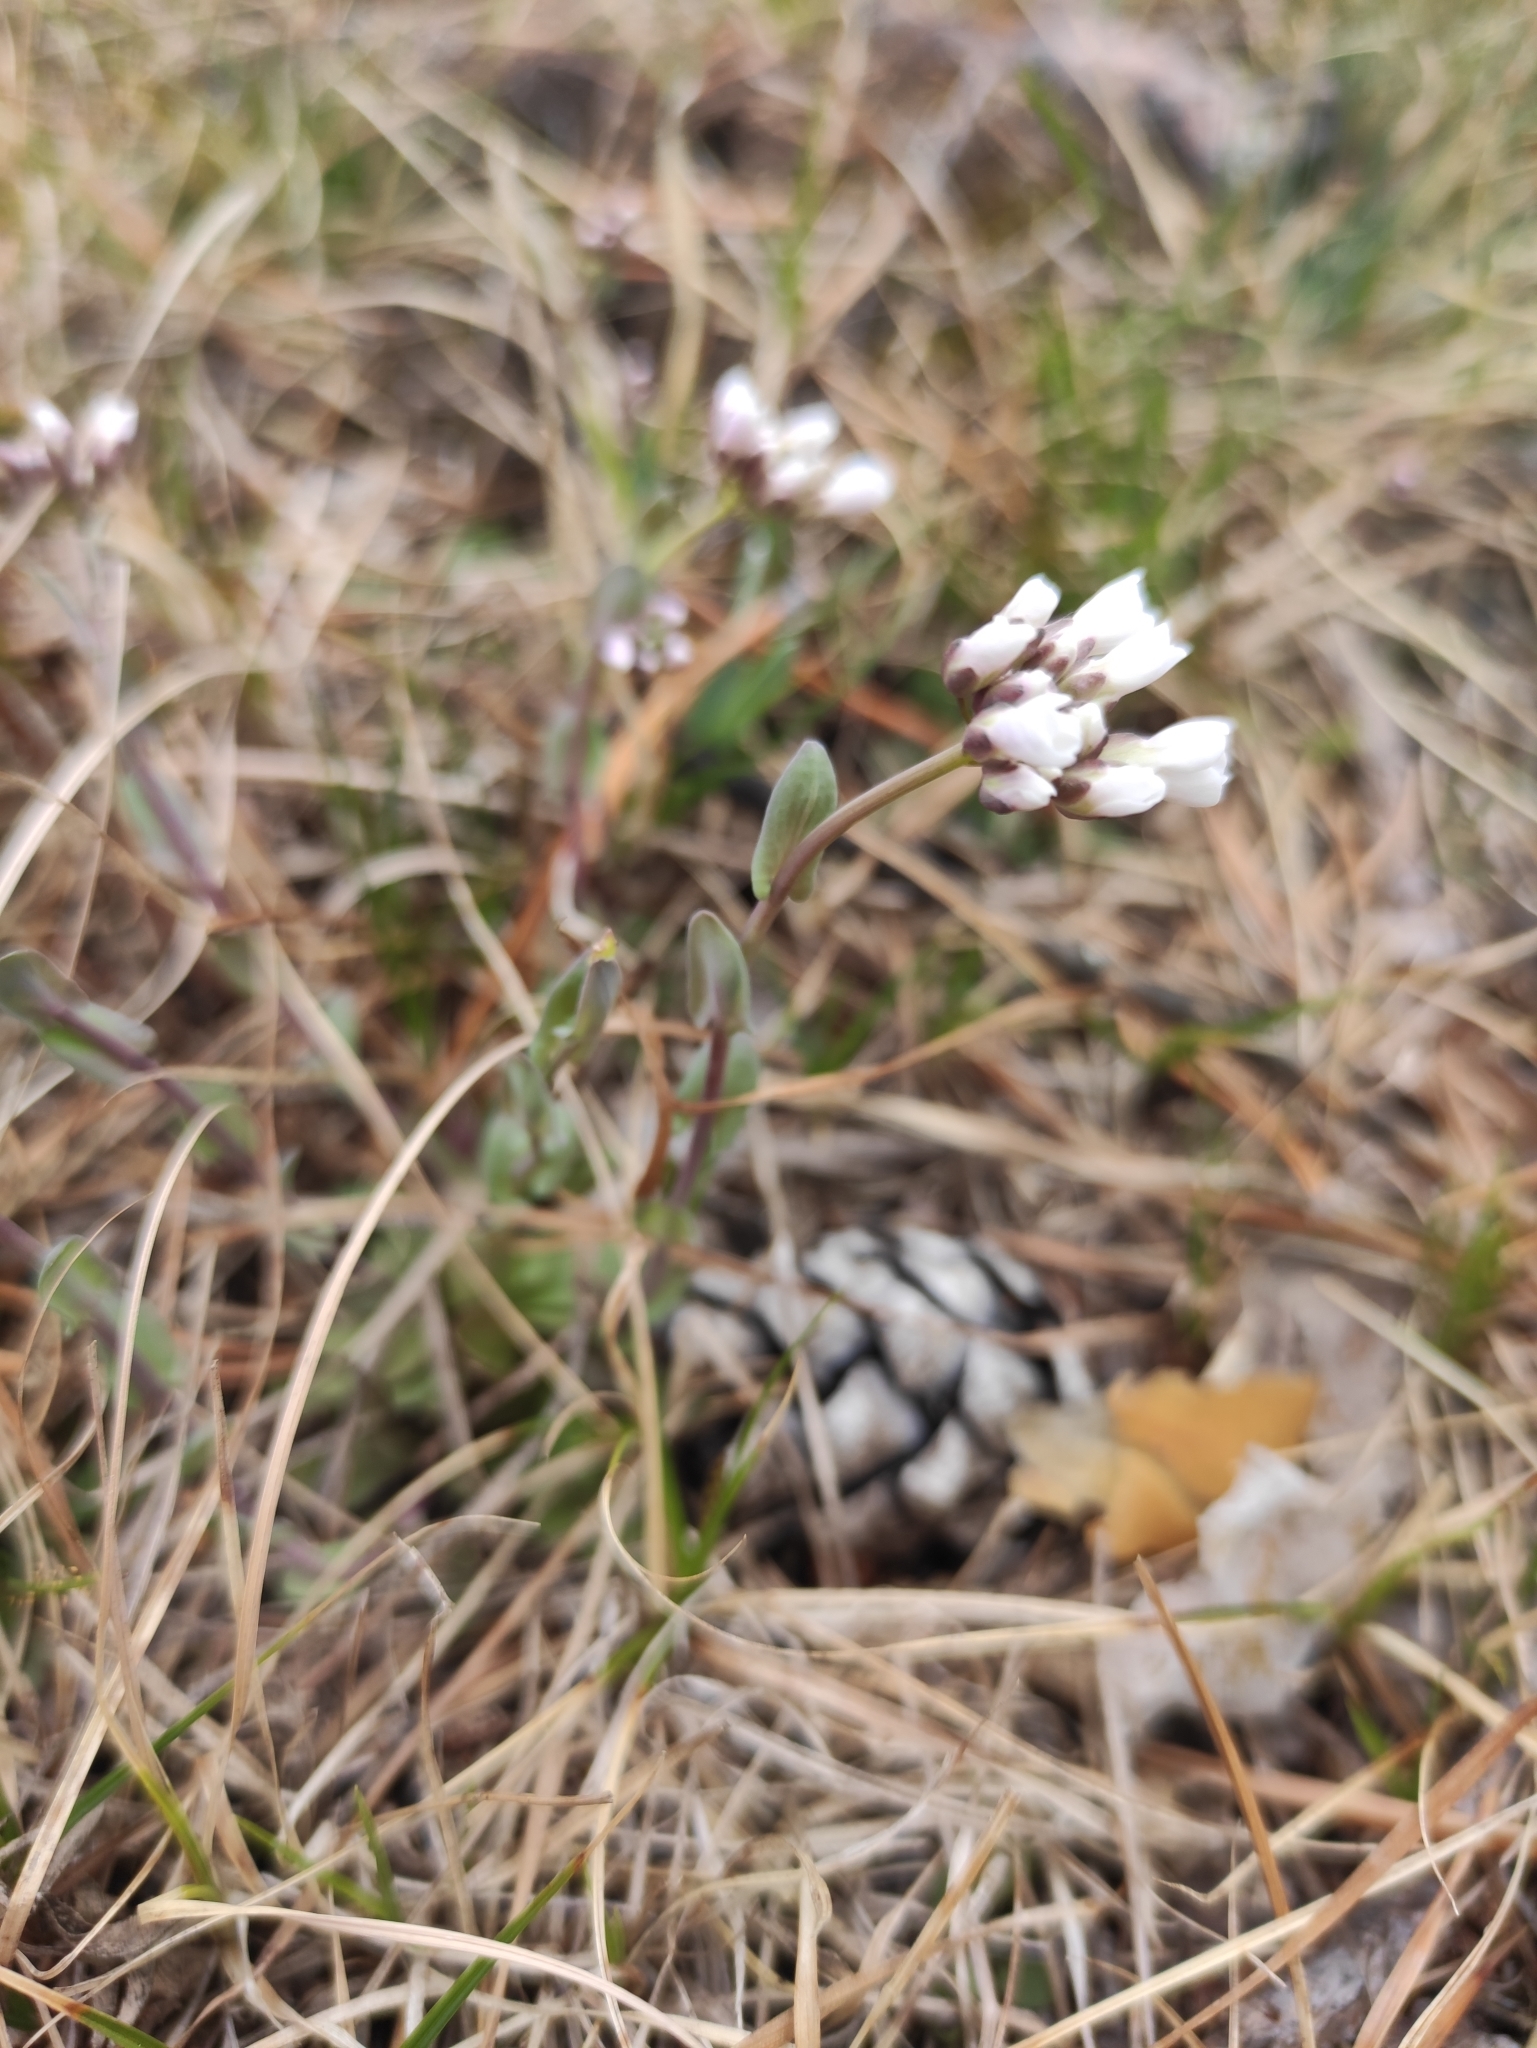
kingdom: Plantae
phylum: Tracheophyta
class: Magnoliopsida
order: Brassicales
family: Brassicaceae
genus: Noccaea
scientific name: Noccaea thlaspidioides
